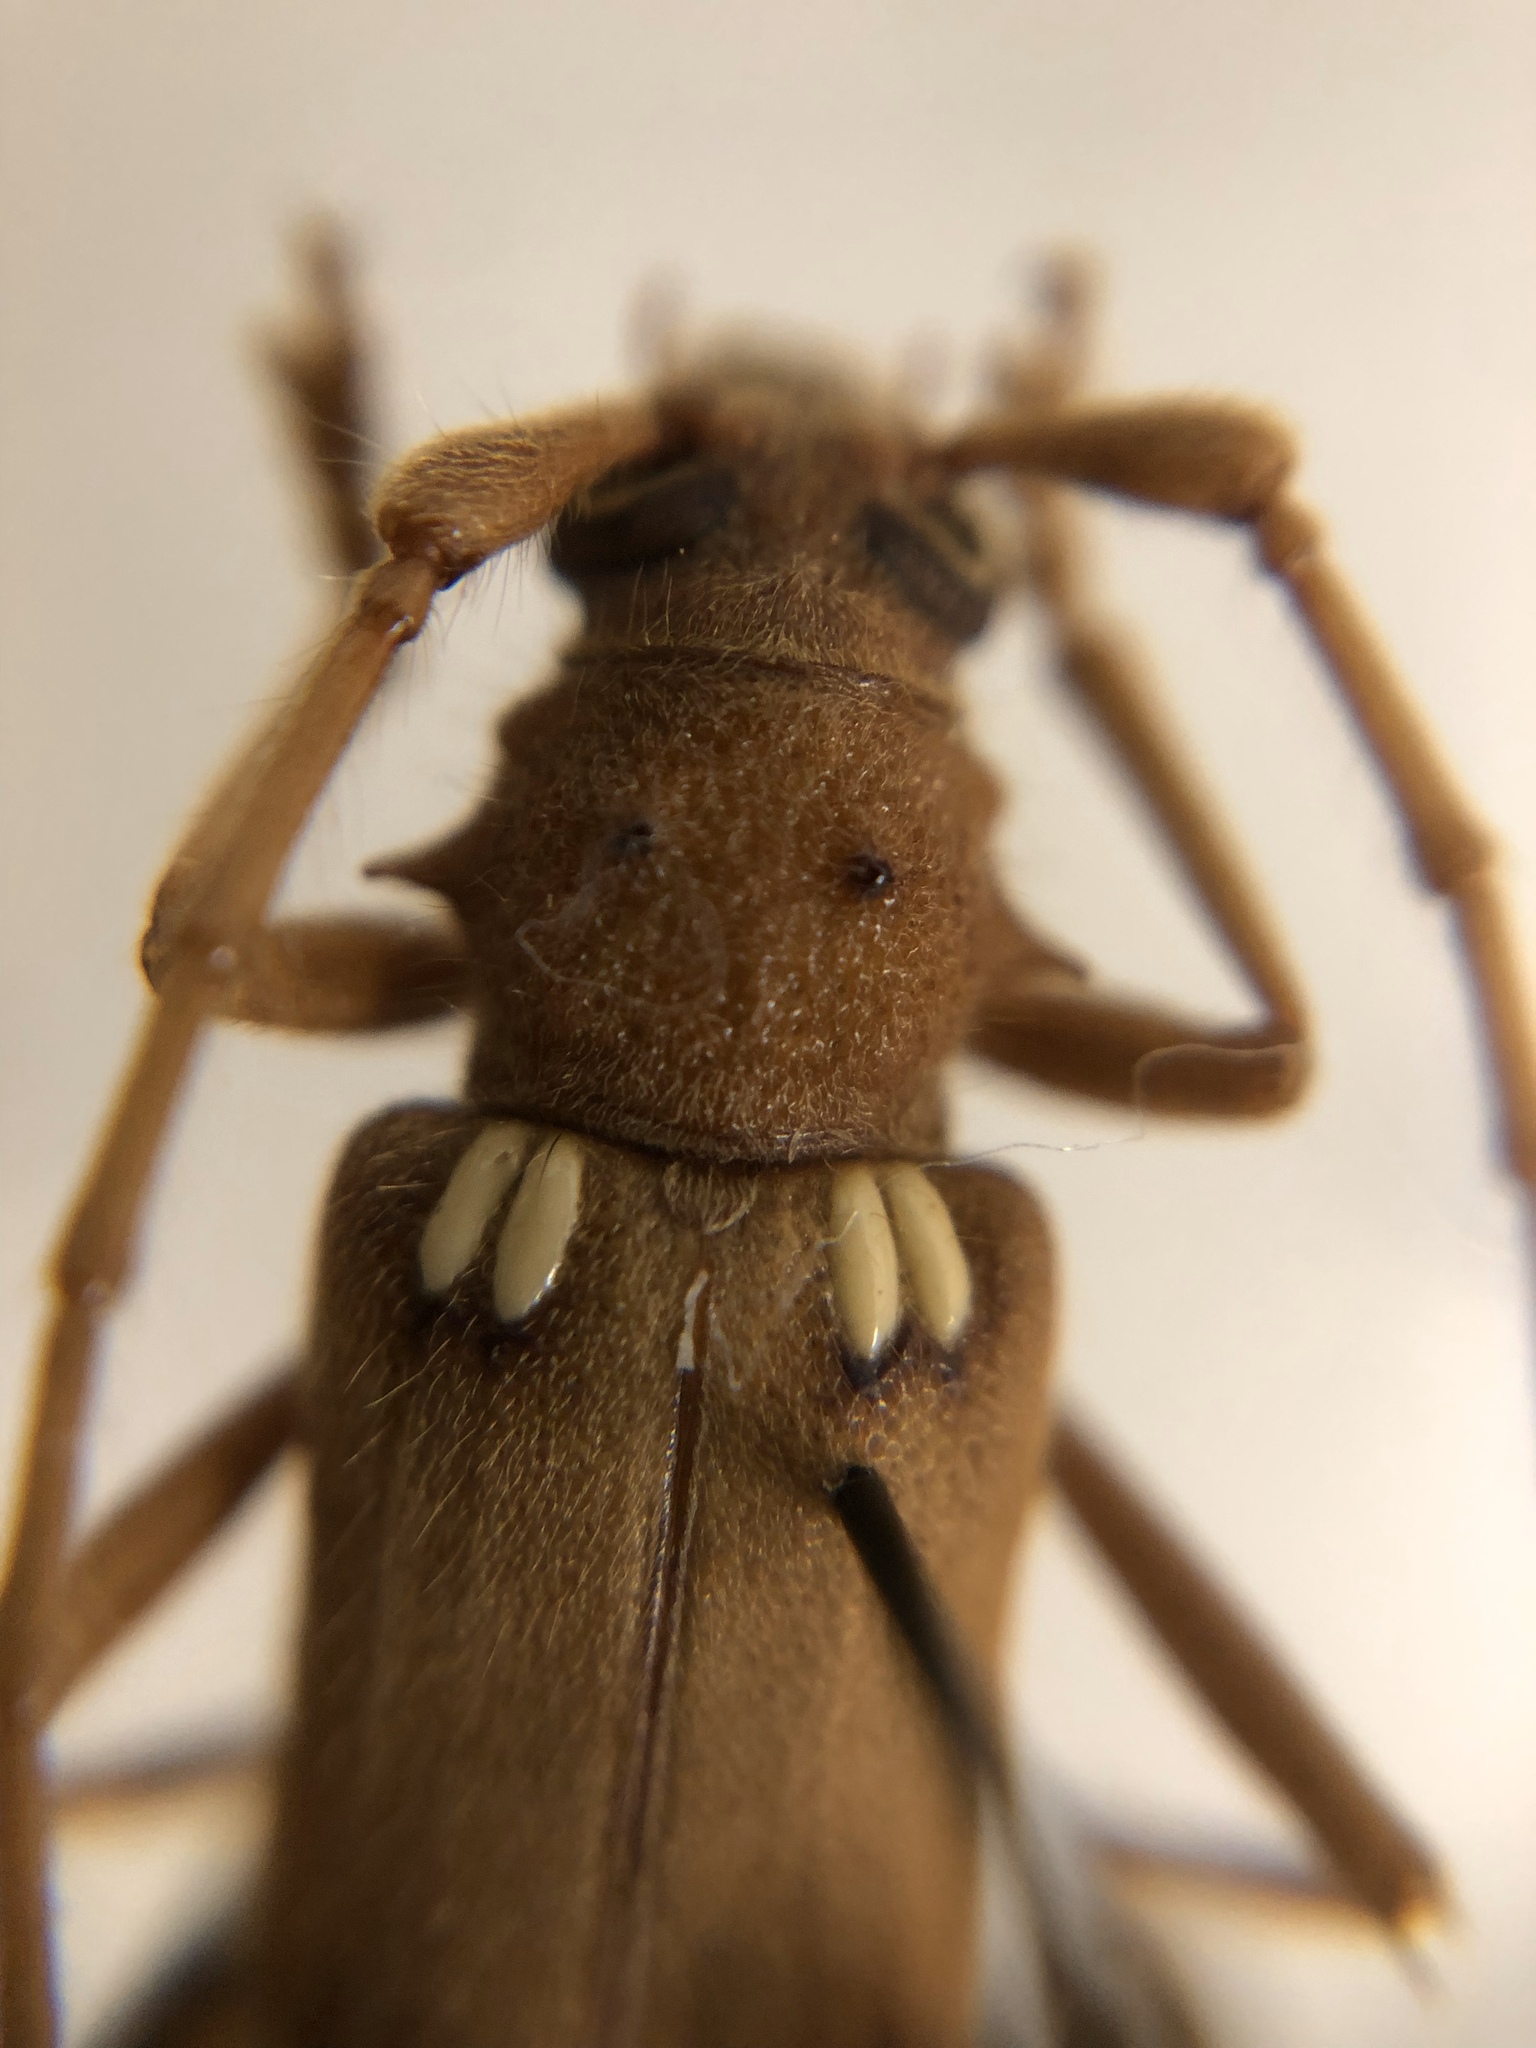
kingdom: Animalia
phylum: Arthropoda
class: Insecta
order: Coleoptera
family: Cerambycidae
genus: Eburia
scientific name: Eburia quadrigeminata
